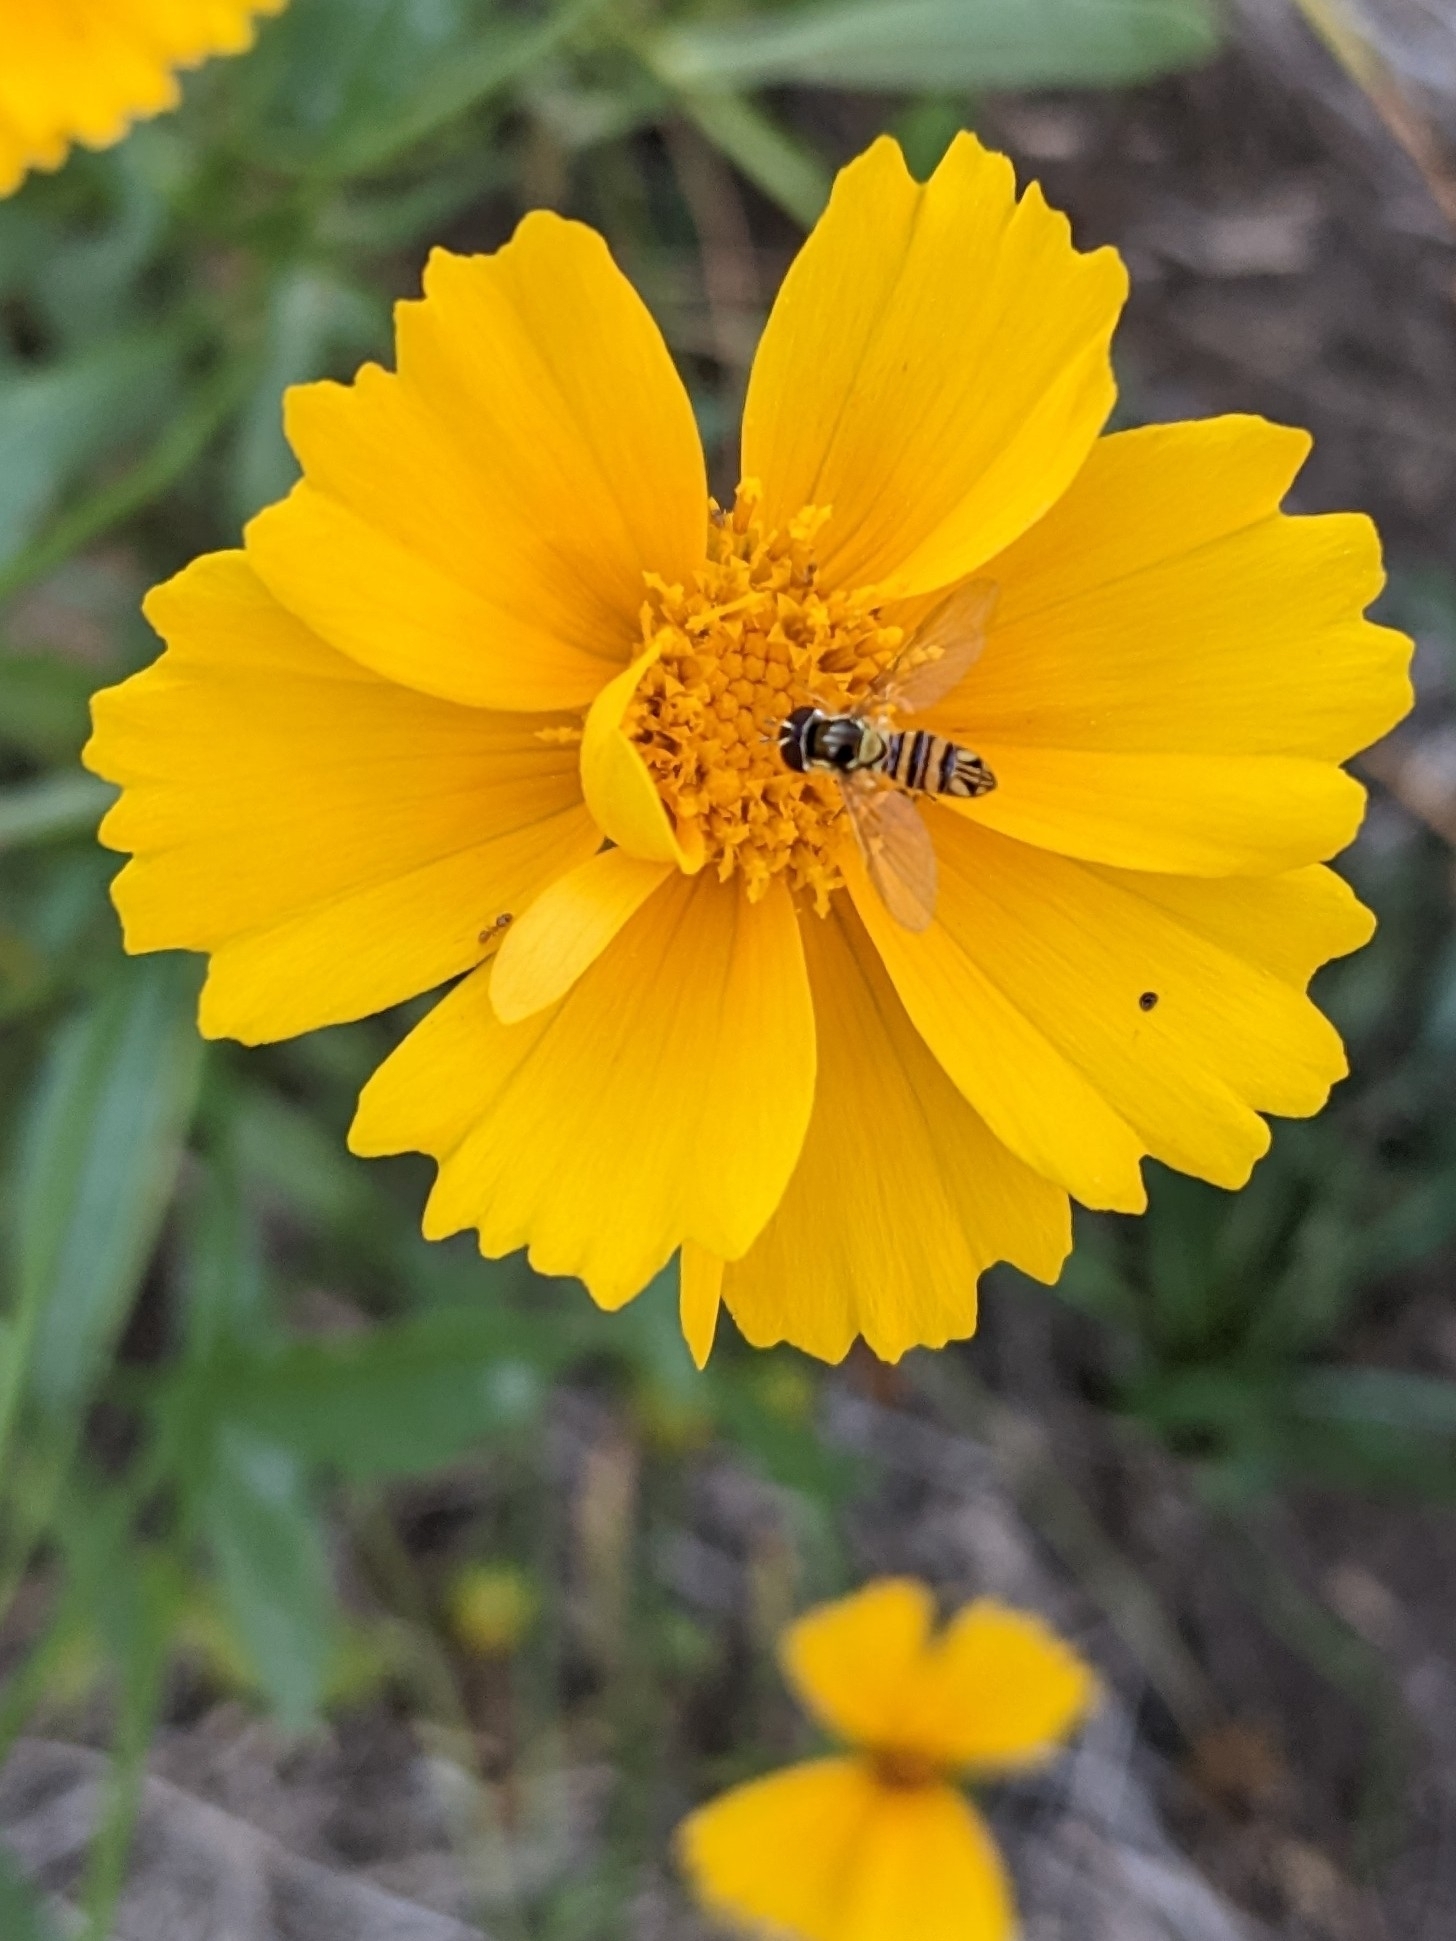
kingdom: Animalia
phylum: Arthropoda
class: Insecta
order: Diptera
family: Syrphidae
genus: Allograpta
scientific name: Allograpta obliqua
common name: Common oblique syrphid
